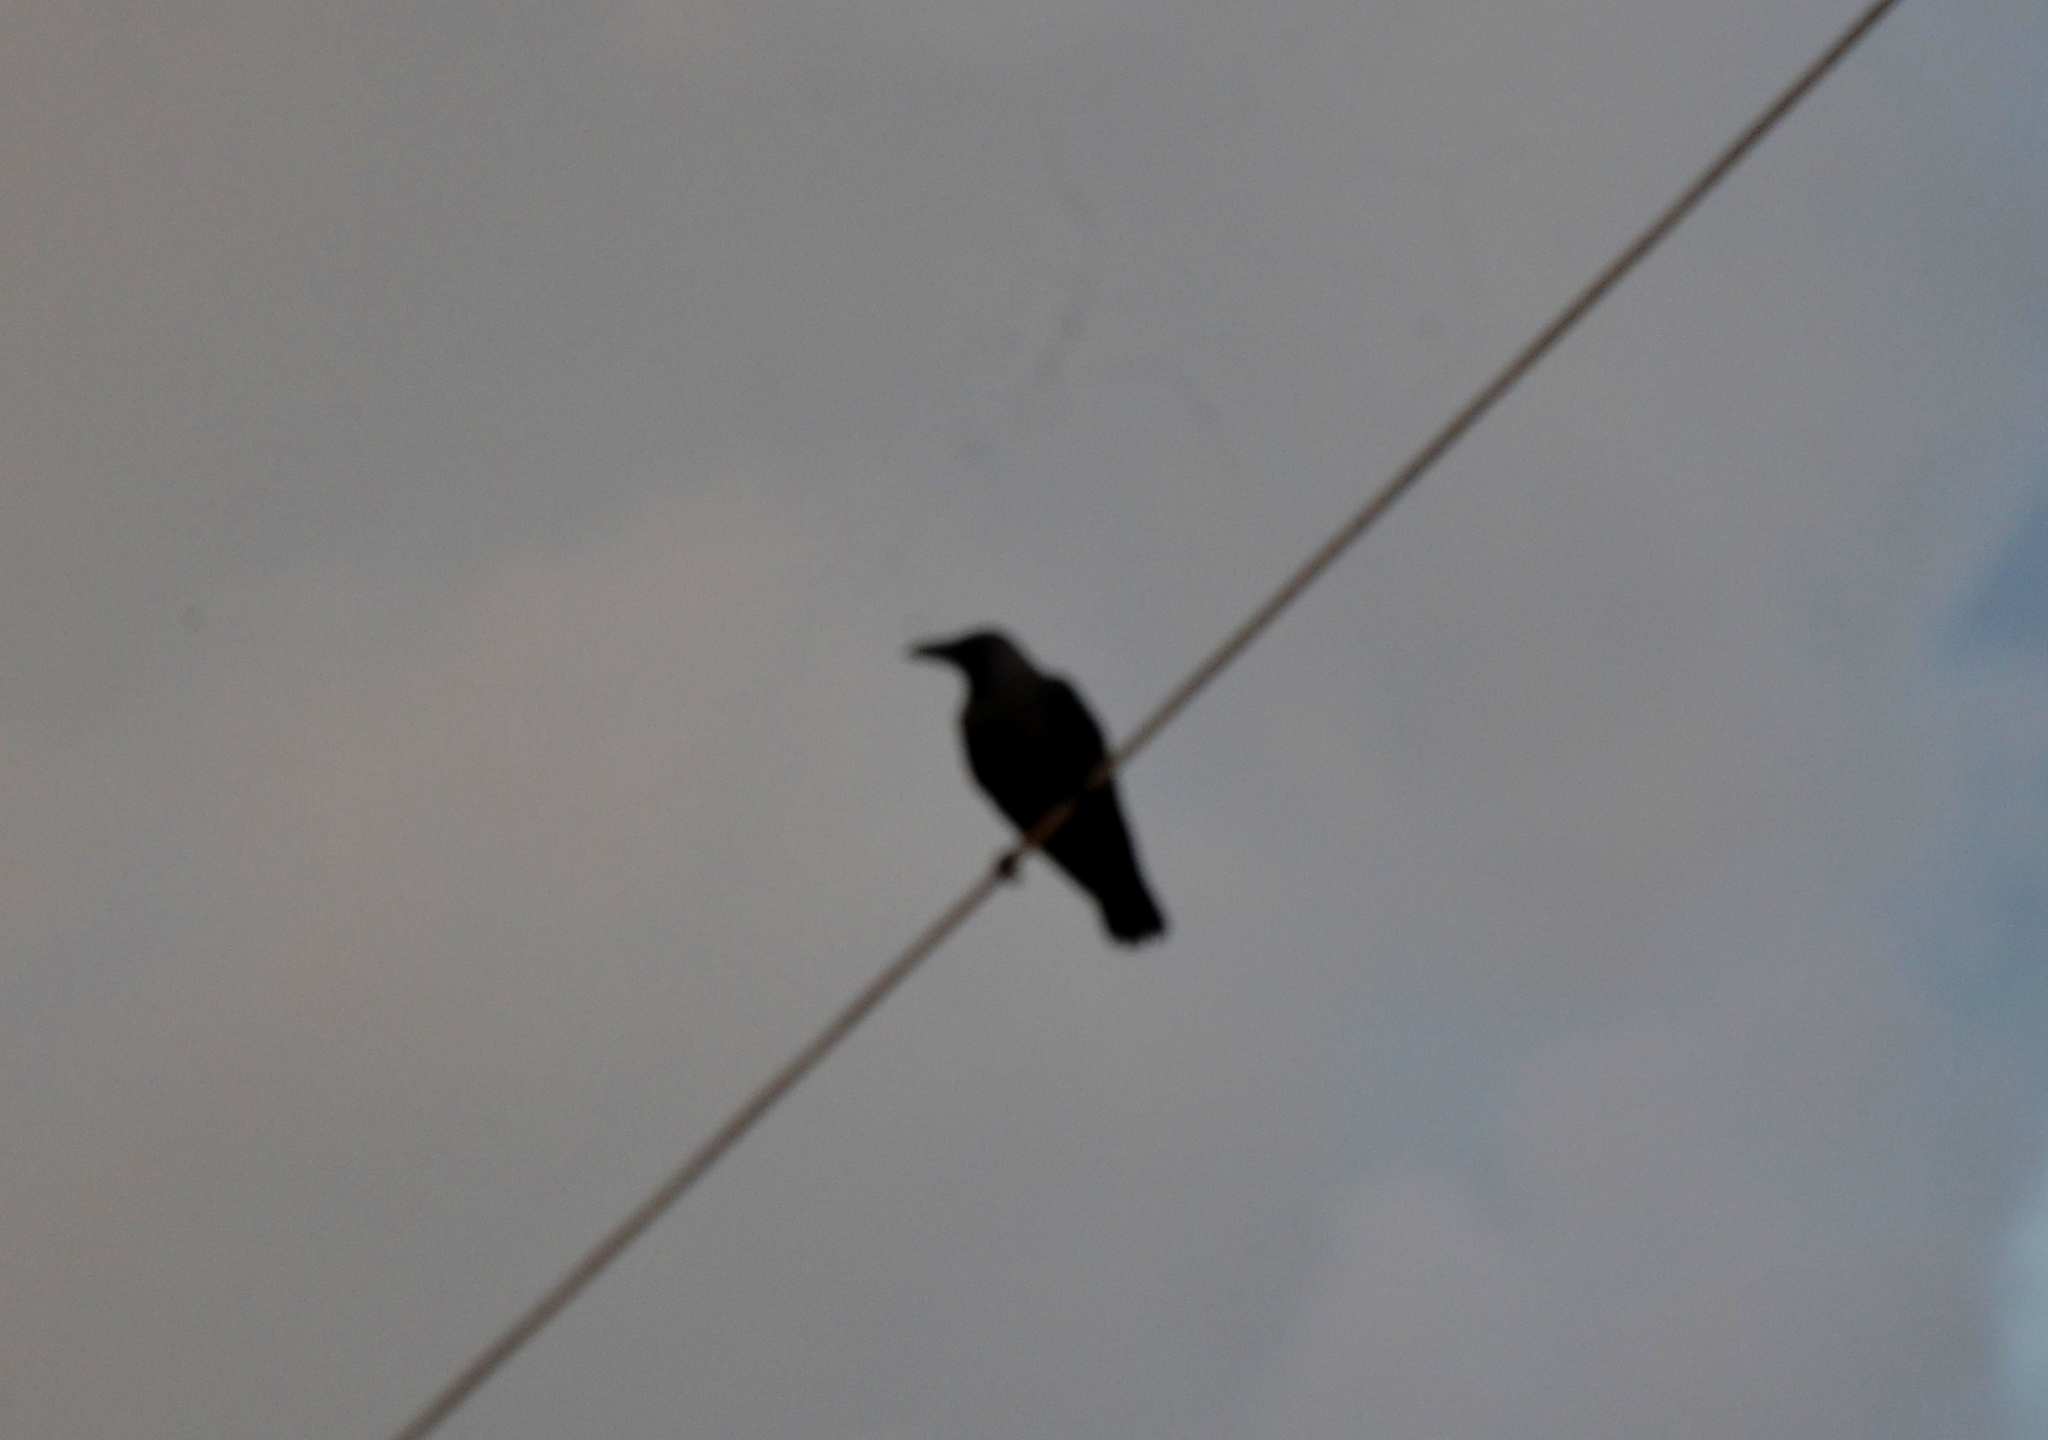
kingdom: Animalia
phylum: Chordata
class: Aves
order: Passeriformes
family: Corvidae
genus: Corvus
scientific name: Corvus splendens
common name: House crow
